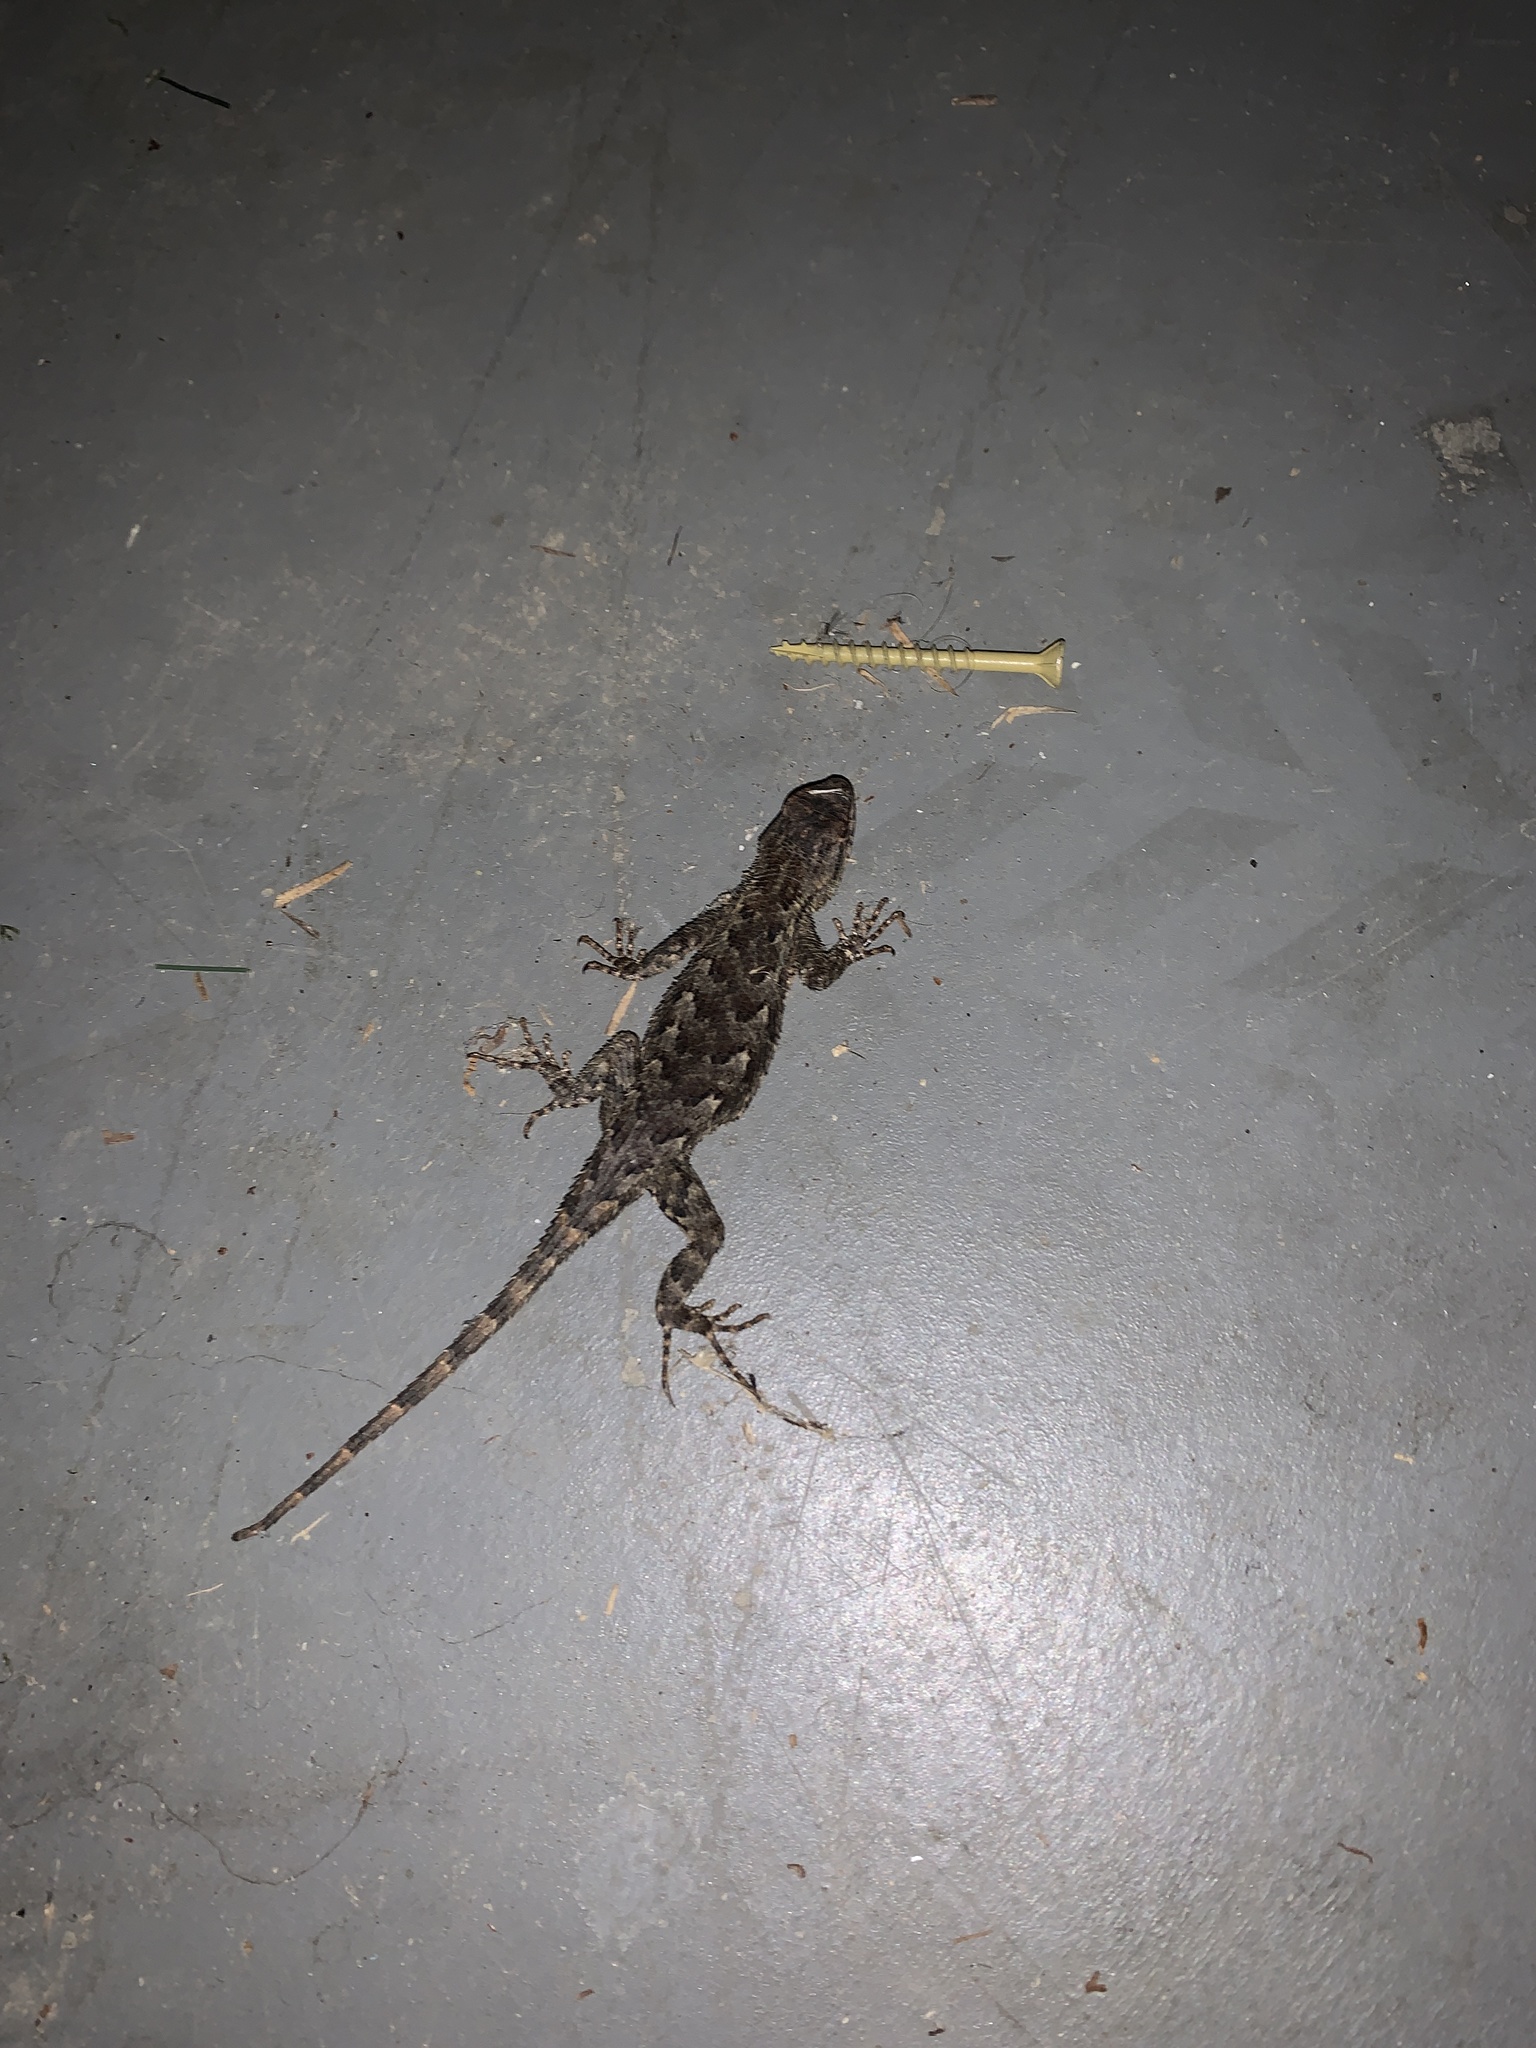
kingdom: Animalia
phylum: Chordata
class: Squamata
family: Phrynosomatidae
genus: Sceloporus
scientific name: Sceloporus undulatus
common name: Eastern fence lizard
